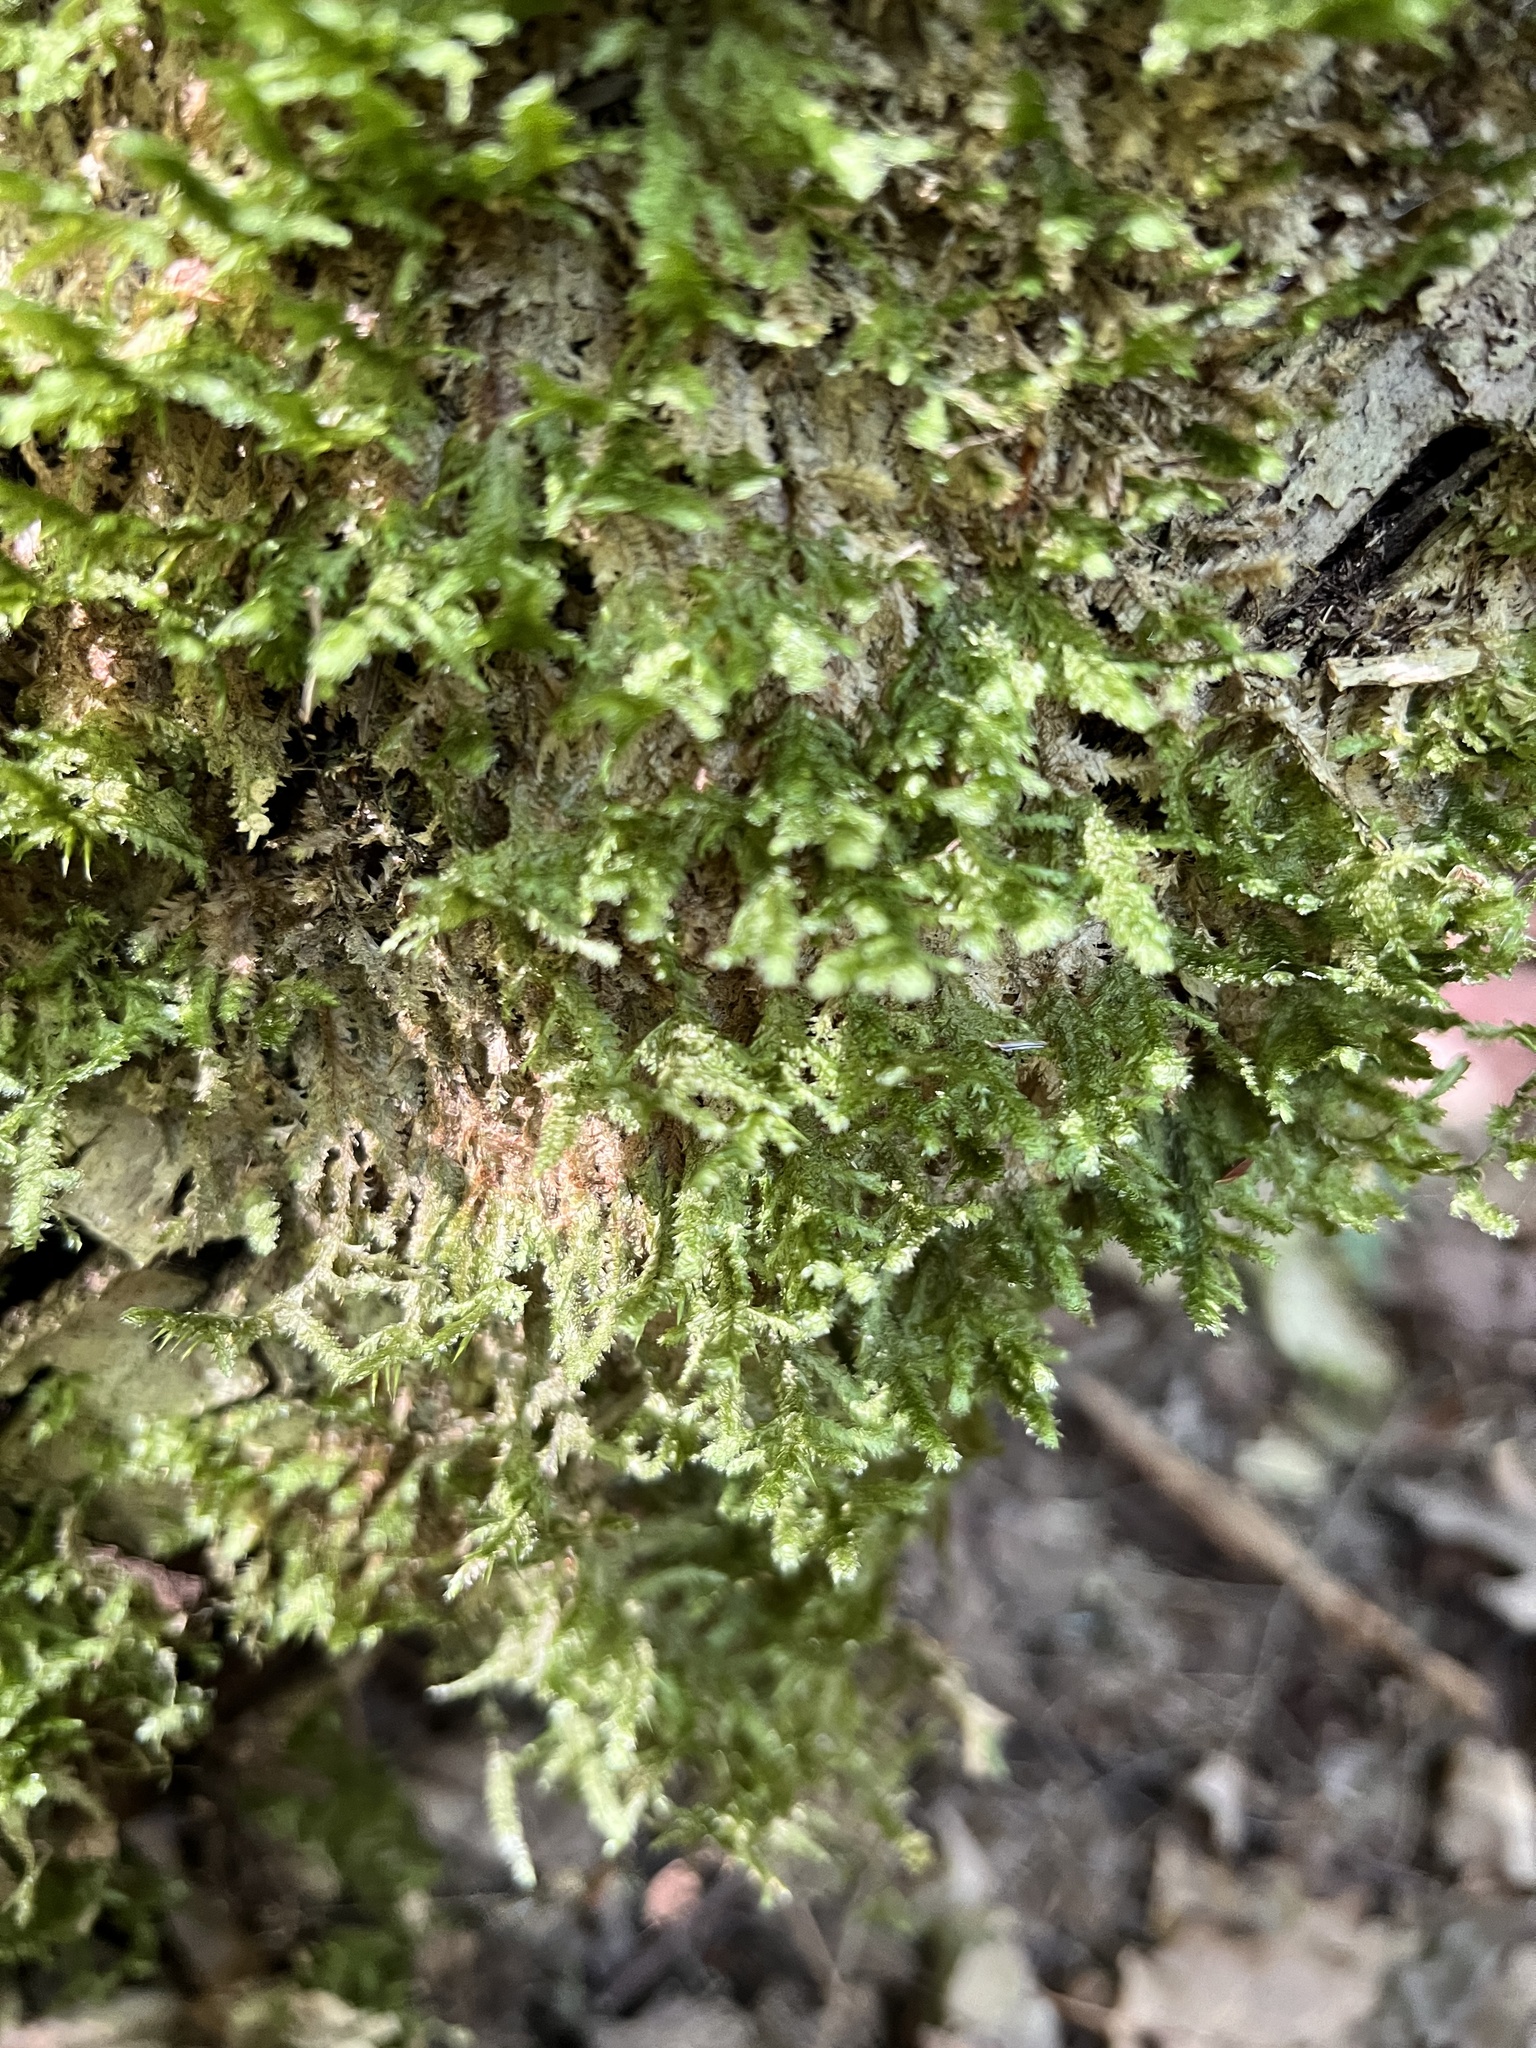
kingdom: Plantae
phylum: Bryophyta
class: Bryopsida
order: Hypnales
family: Neckeraceae
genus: Neckera
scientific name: Neckera pennata
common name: Feathery neckera
